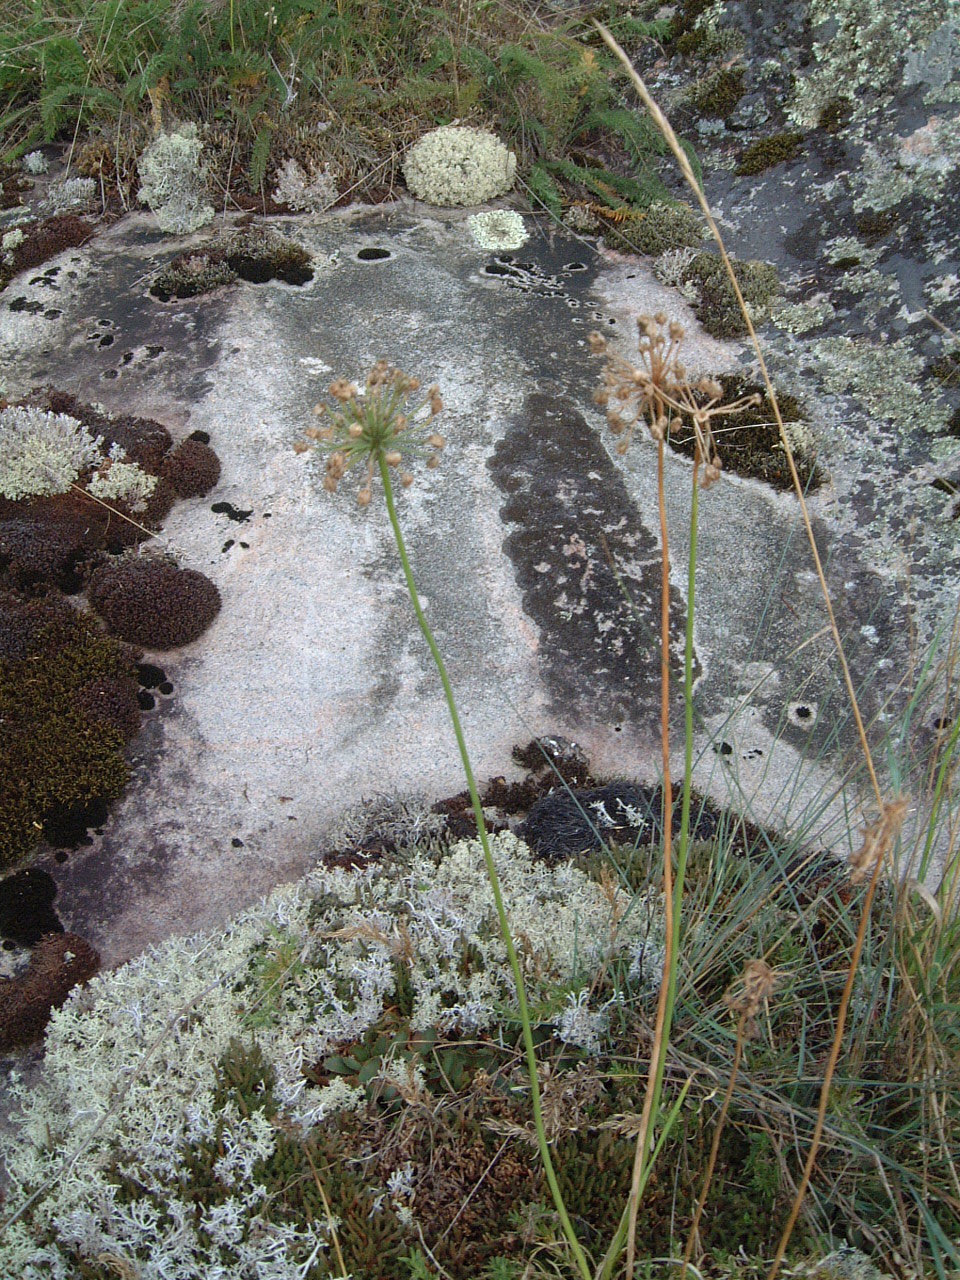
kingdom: Plantae
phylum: Tracheophyta
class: Liliopsida
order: Asparagales
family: Amaryllidaceae
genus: Allium
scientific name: Allium stellatum
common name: Autumn onion
